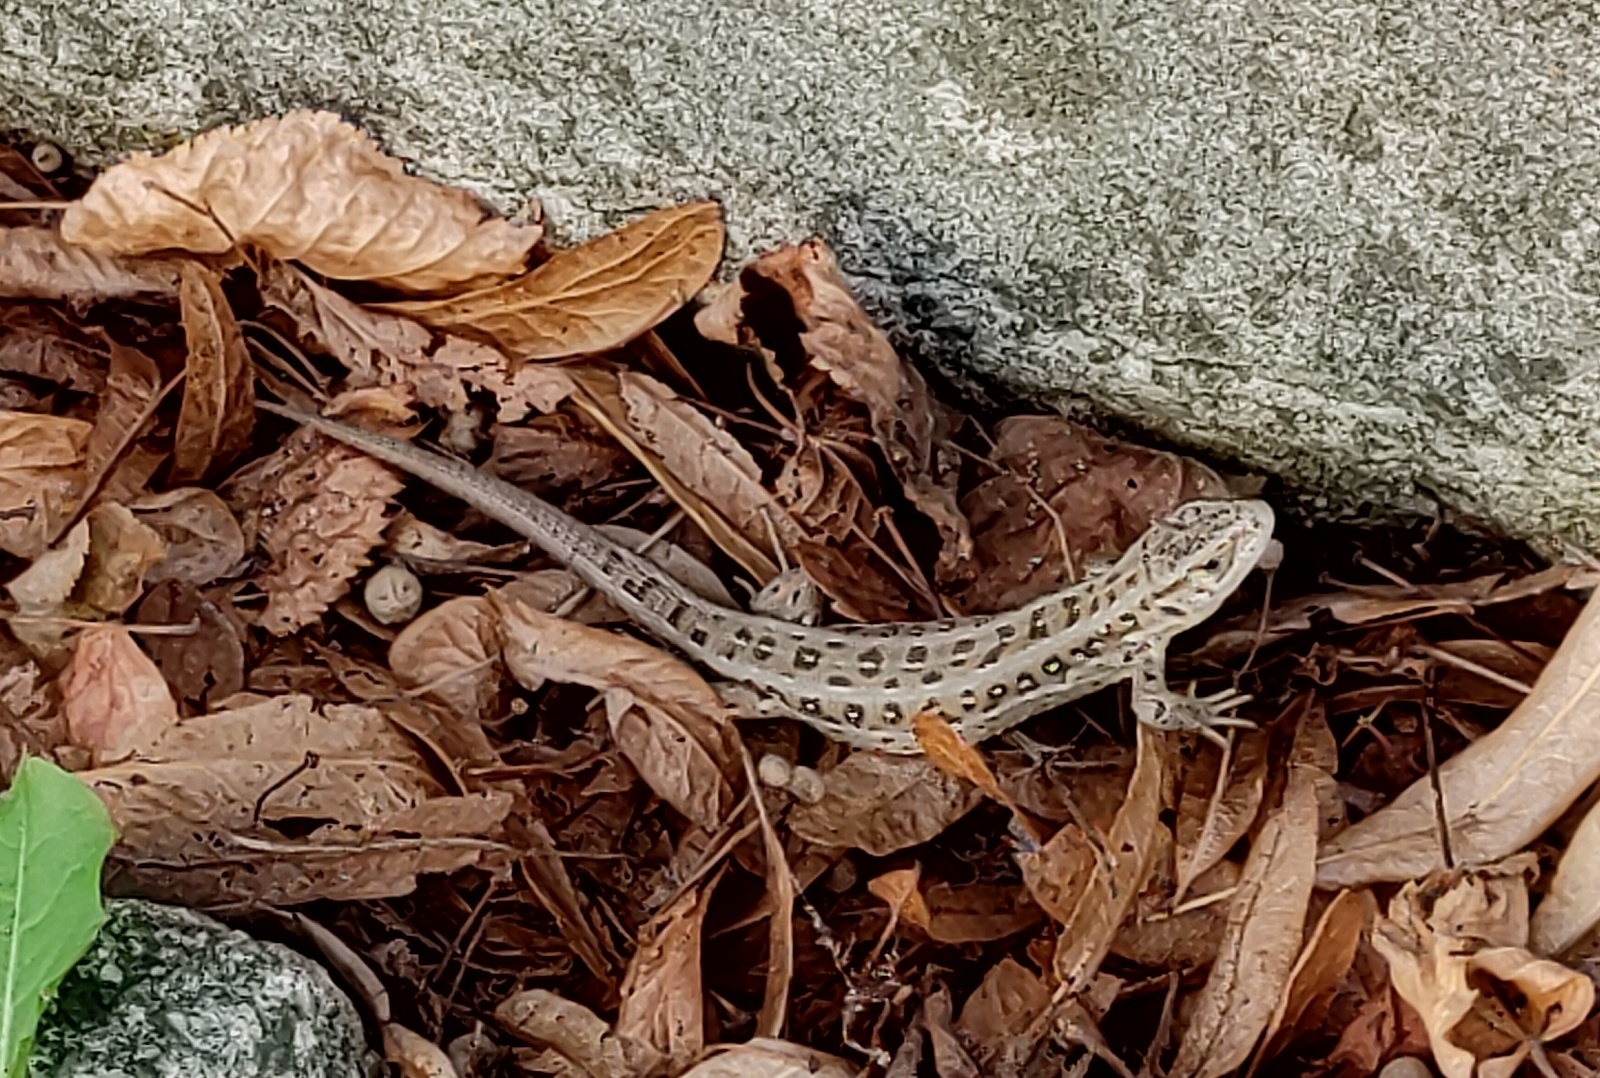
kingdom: Animalia
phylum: Chordata
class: Squamata
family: Lacertidae
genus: Lacerta
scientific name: Lacerta agilis
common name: Sand lizard
